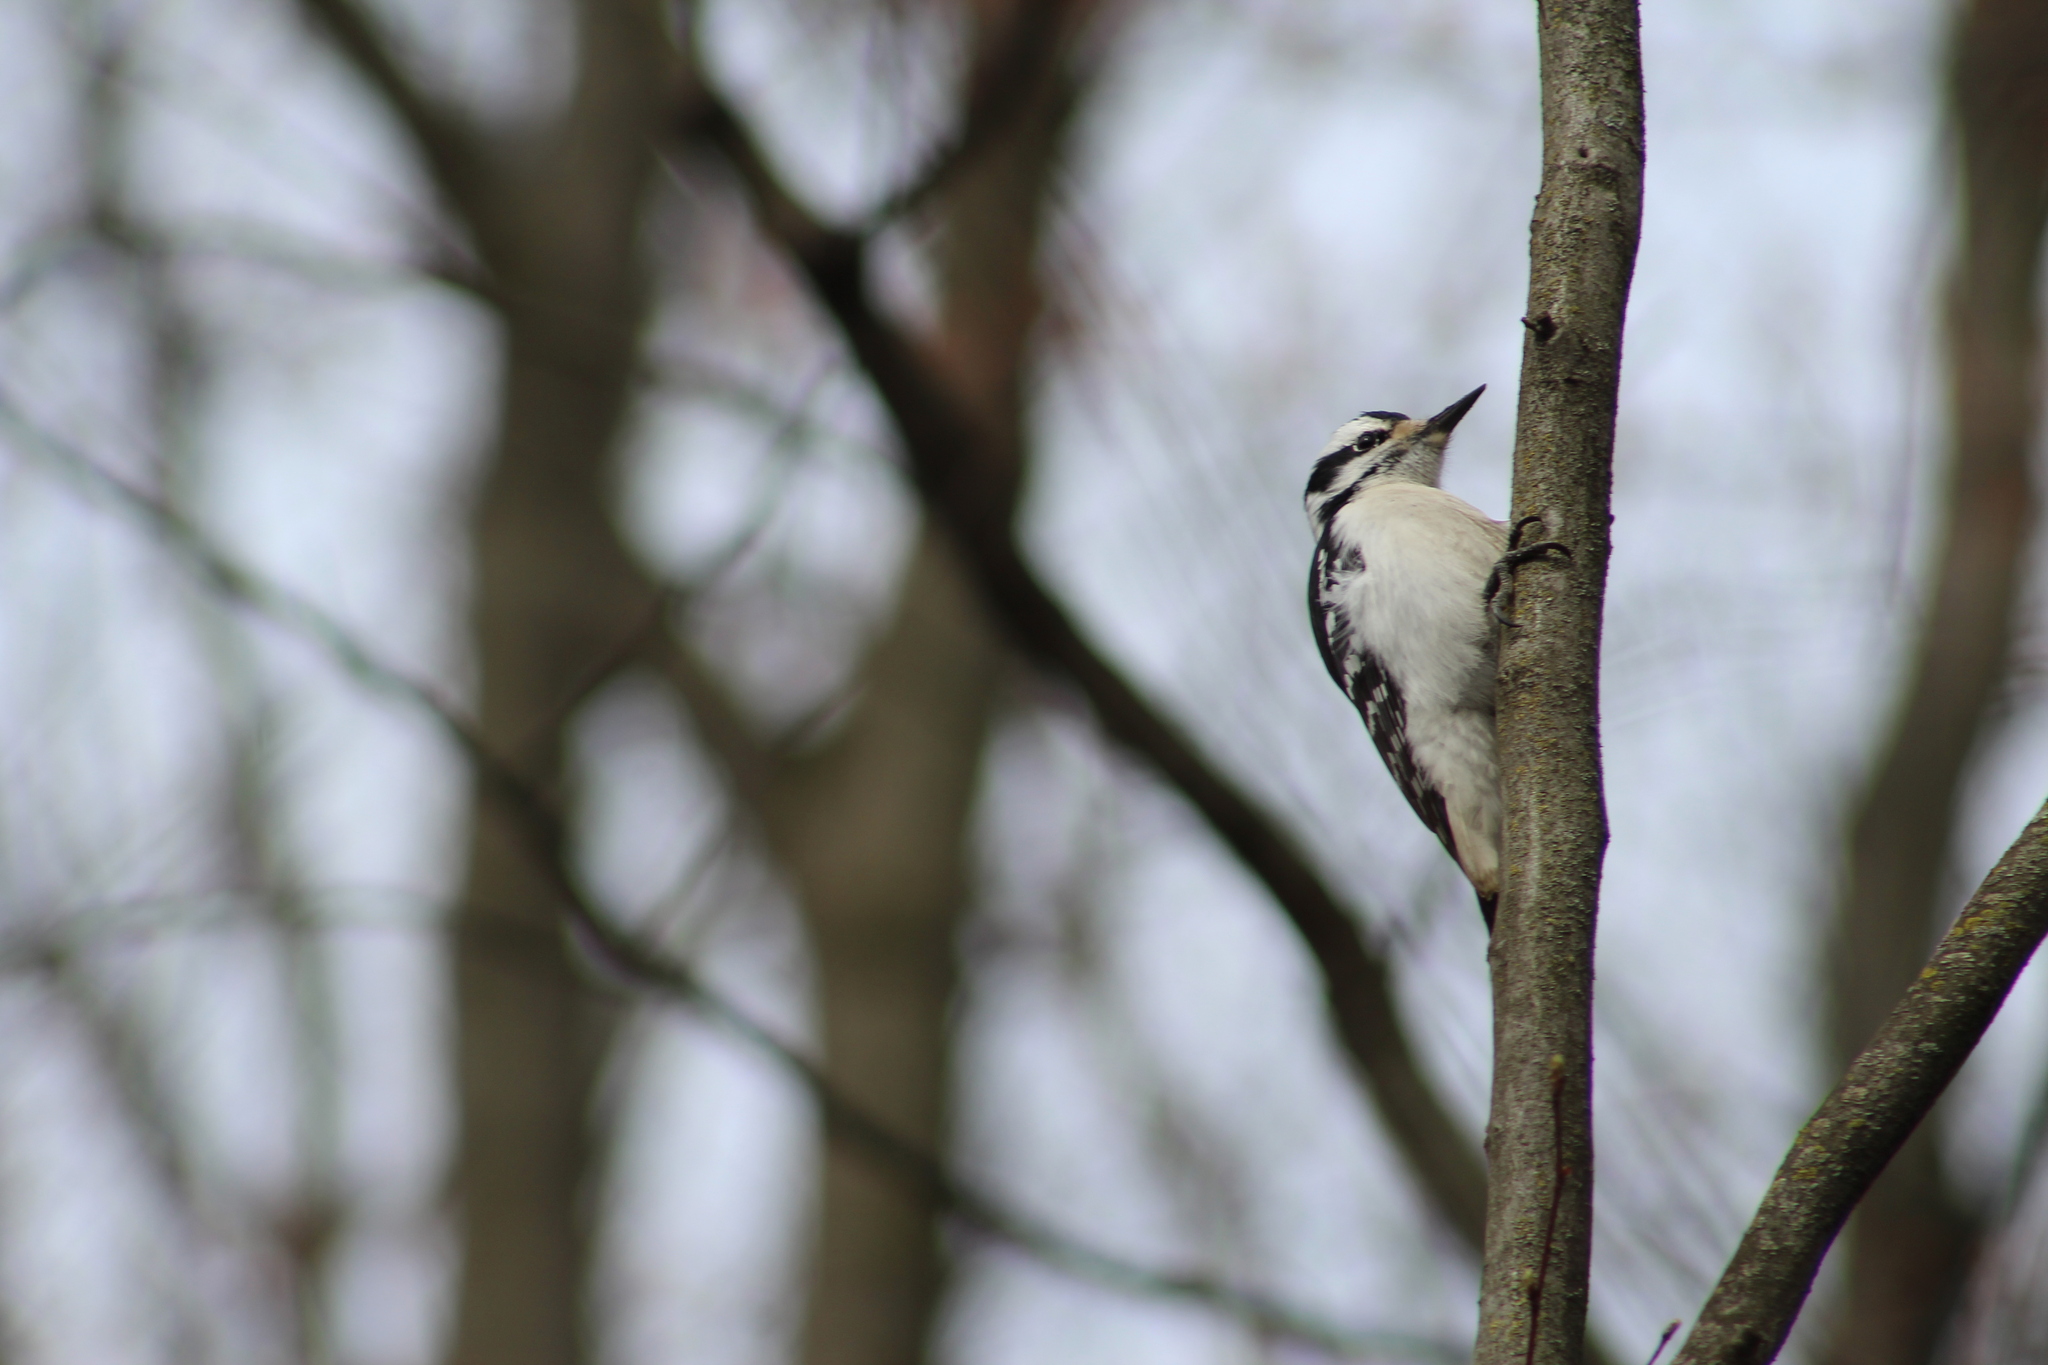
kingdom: Animalia
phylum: Chordata
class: Aves
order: Piciformes
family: Picidae
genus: Leuconotopicus
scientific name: Leuconotopicus villosus
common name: Hairy woodpecker
